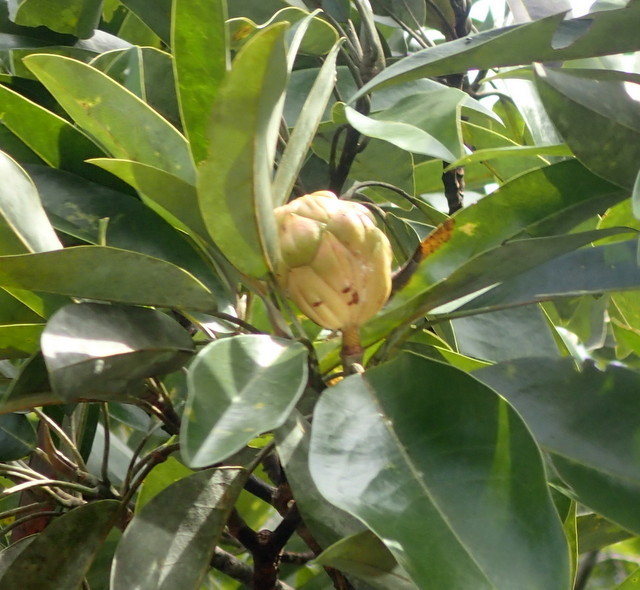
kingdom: Plantae
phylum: Tracheophyta
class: Magnoliopsida
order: Magnoliales
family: Magnoliaceae
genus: Magnolia
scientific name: Magnolia virginiana
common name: Swamp bay
